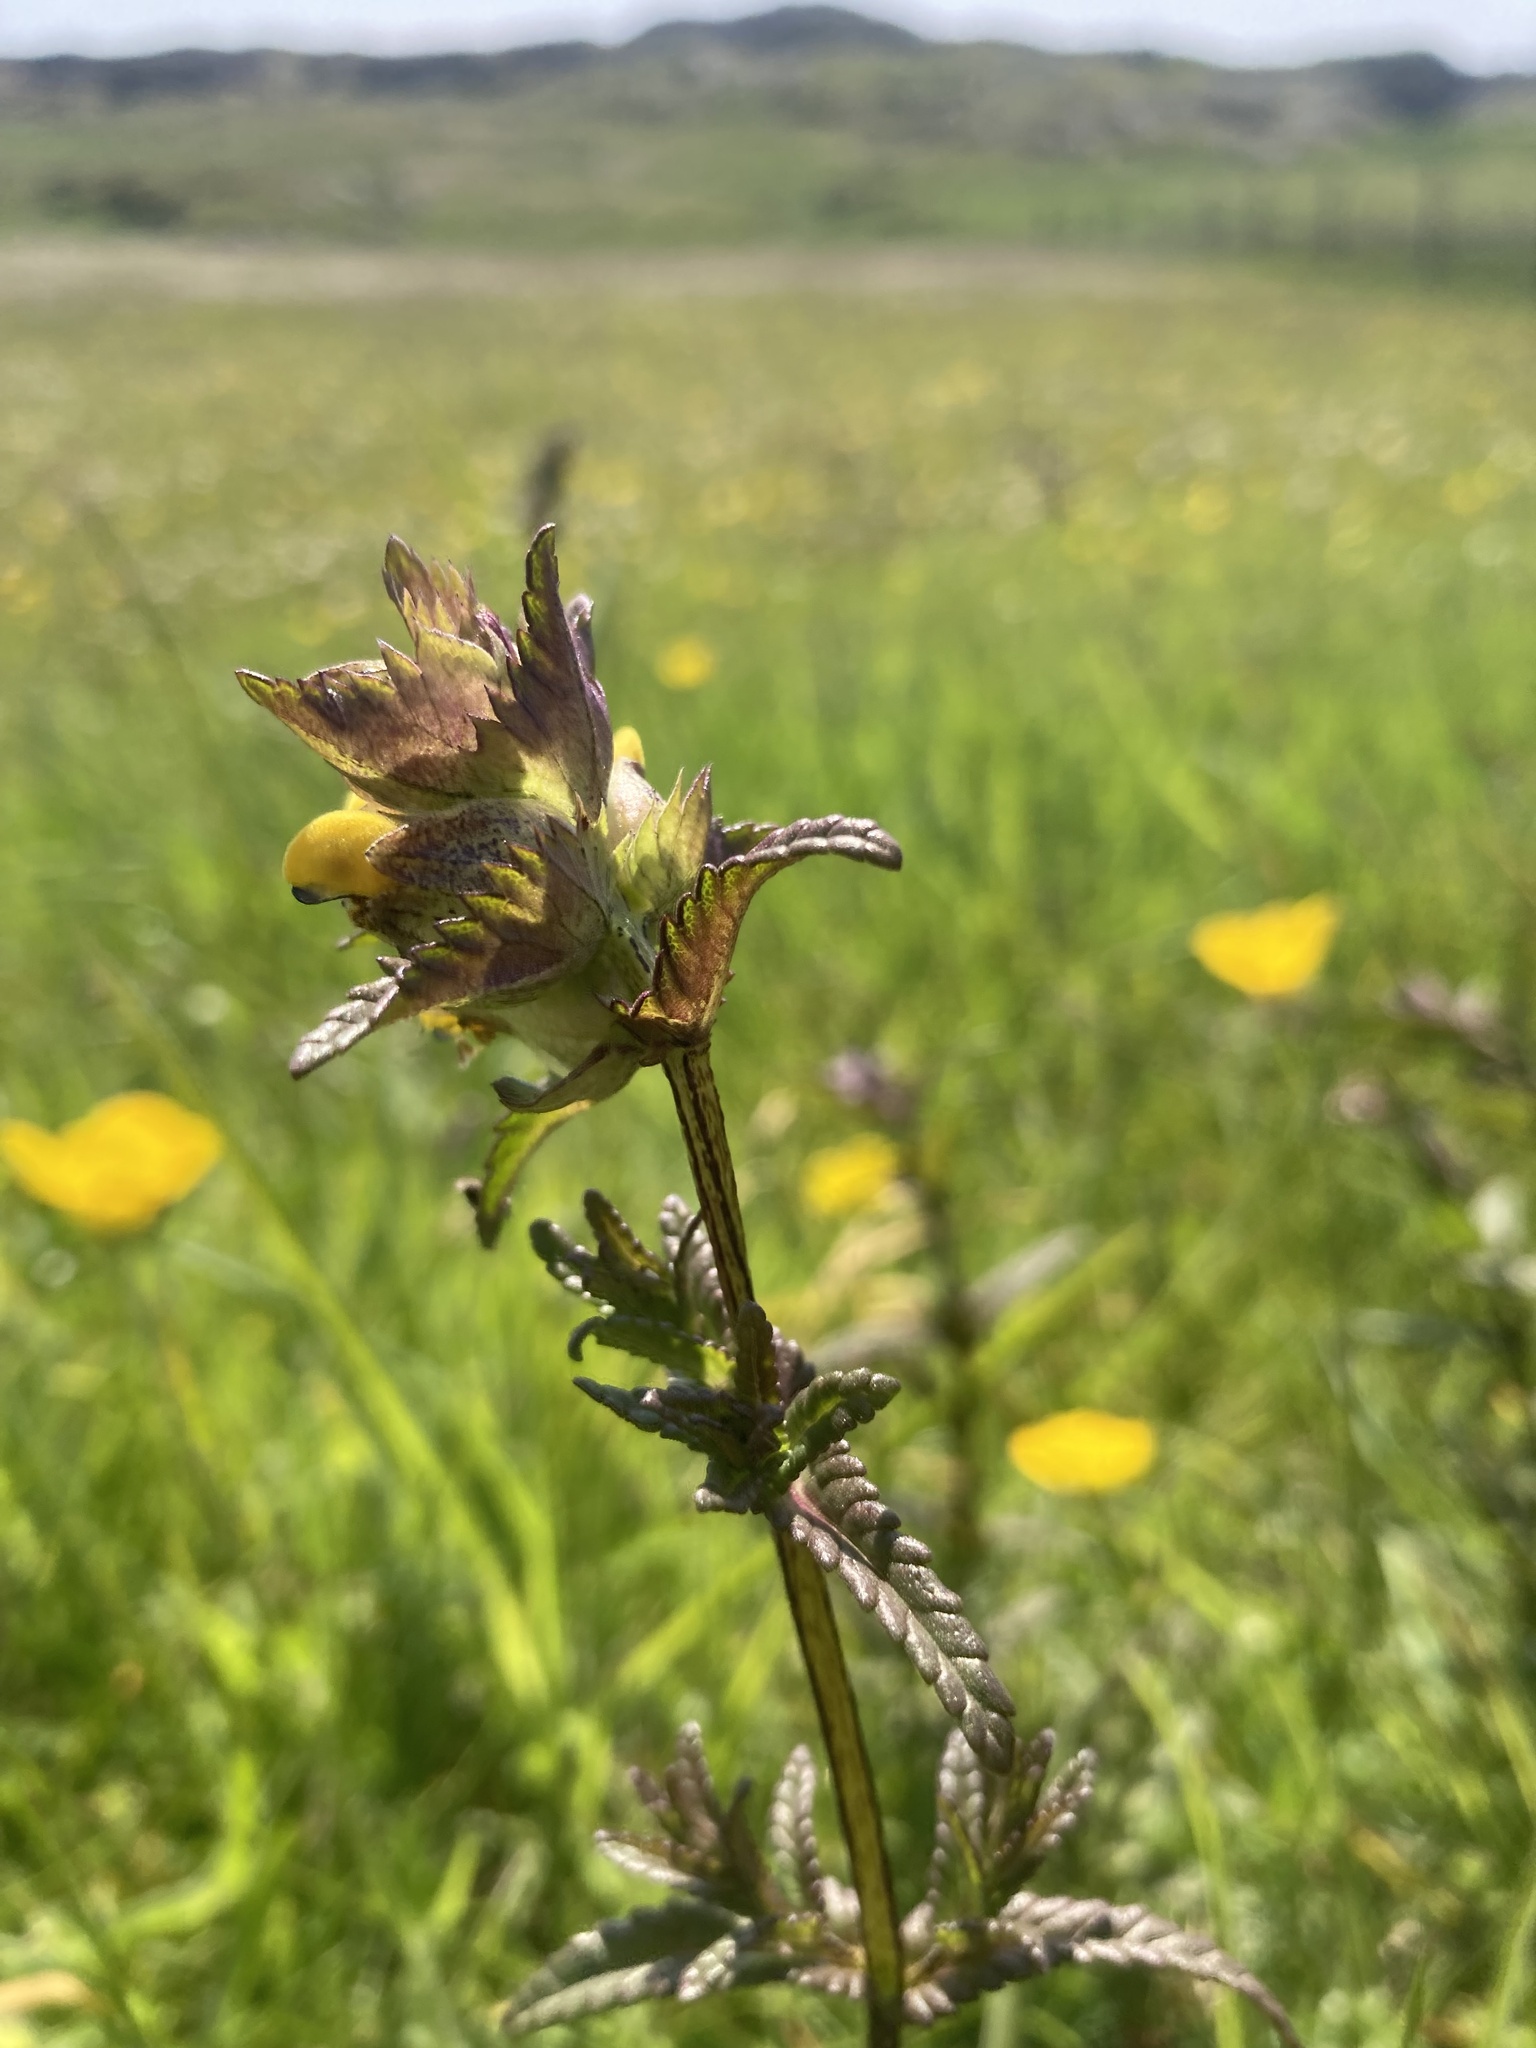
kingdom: Plantae
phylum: Tracheophyta
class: Magnoliopsida
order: Lamiales
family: Orobanchaceae
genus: Rhinanthus
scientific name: Rhinanthus minor
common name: Yellow-rattle
